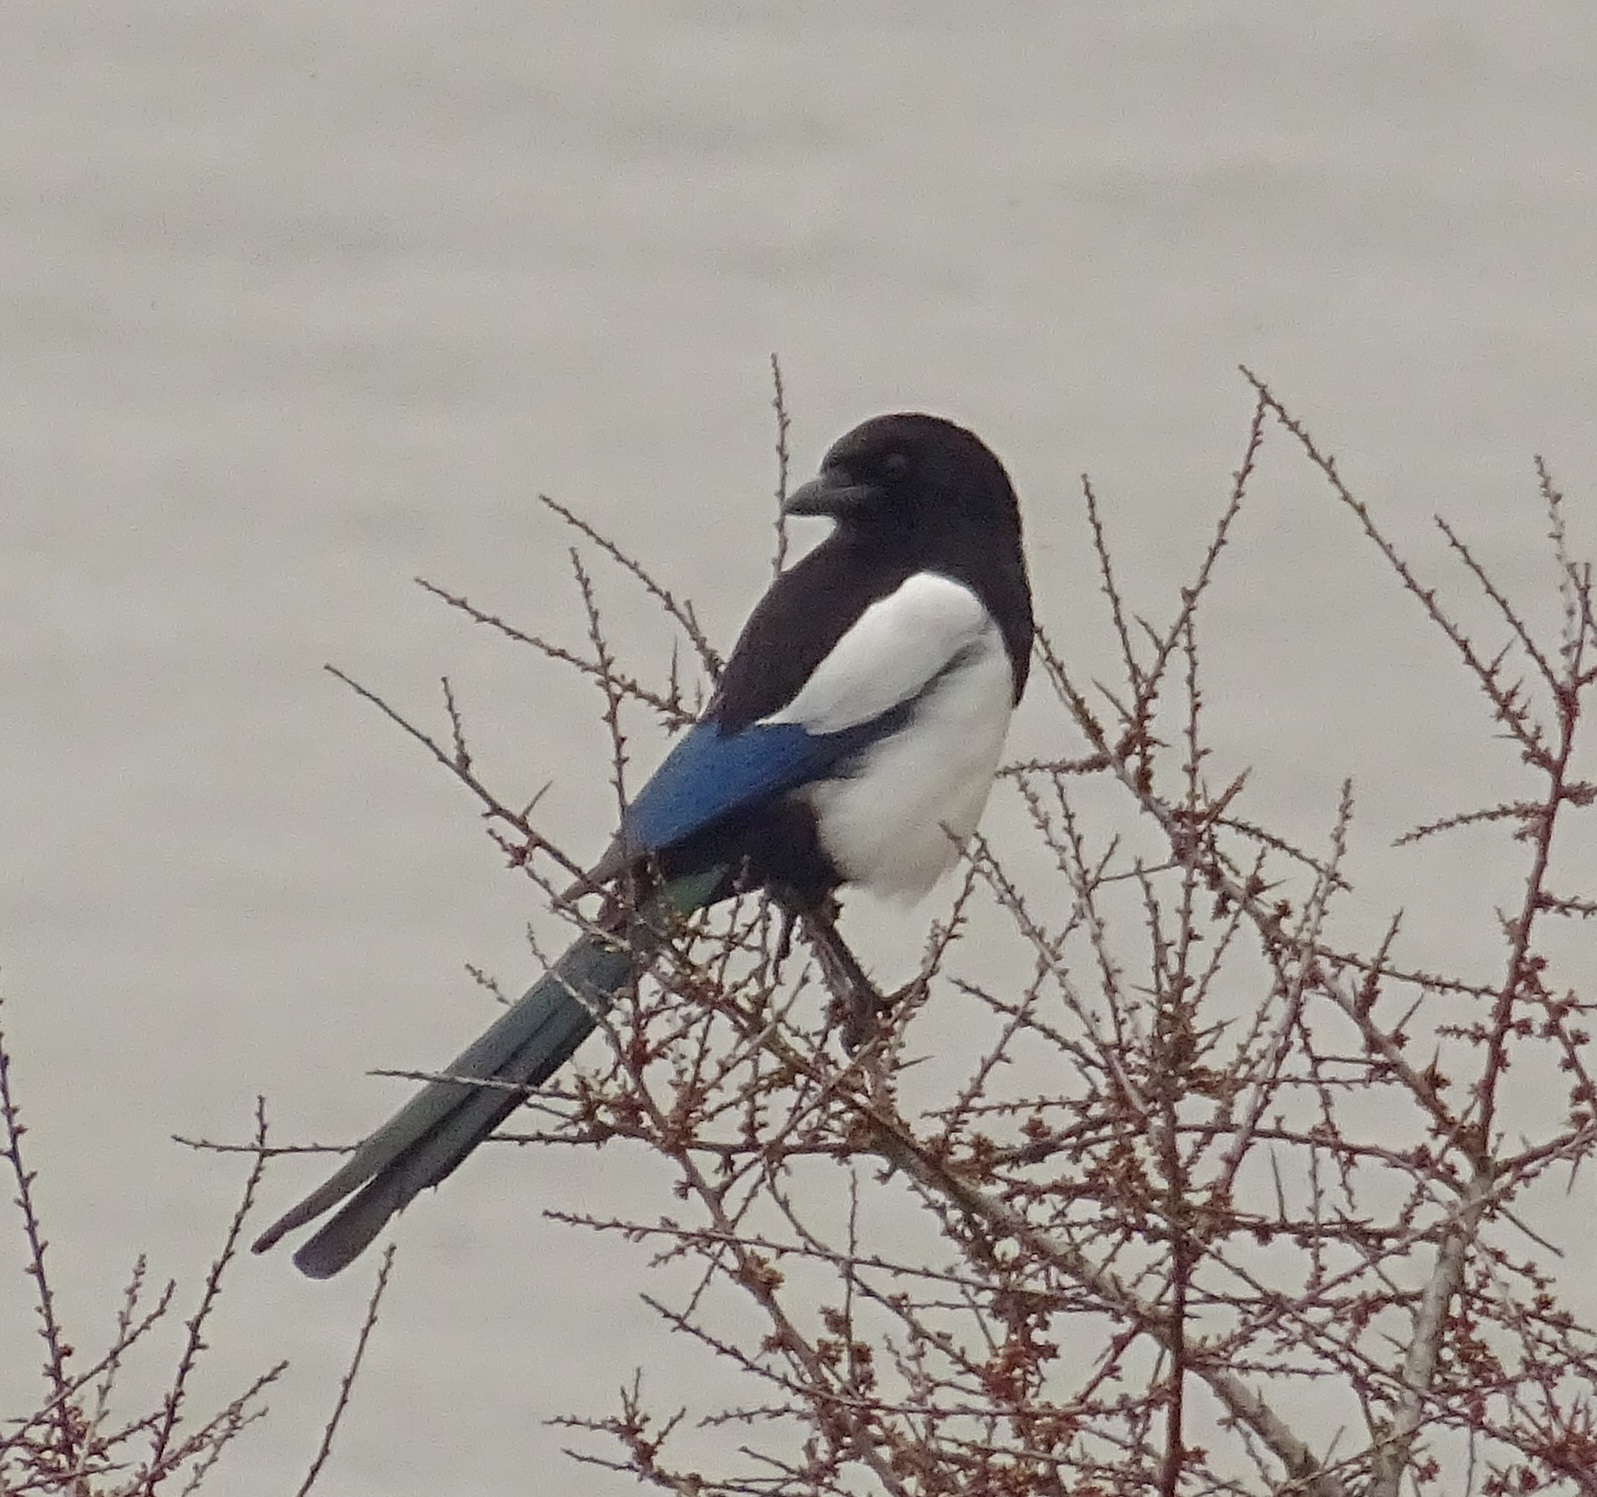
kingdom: Animalia
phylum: Chordata
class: Aves
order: Passeriformes
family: Corvidae
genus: Pica
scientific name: Pica pica
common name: Eurasian magpie
